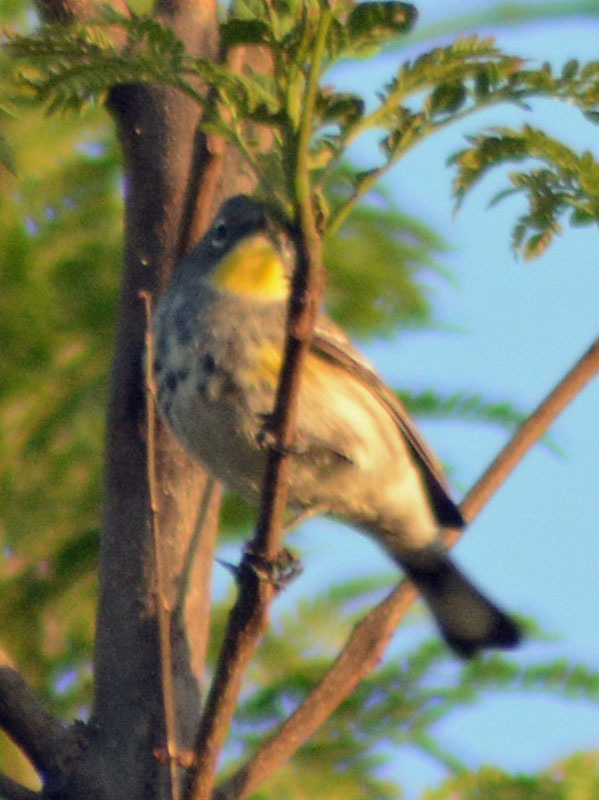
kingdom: Animalia
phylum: Chordata
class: Aves
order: Passeriformes
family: Parulidae
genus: Setophaga
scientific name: Setophaga auduboni
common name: Audubon's warbler
